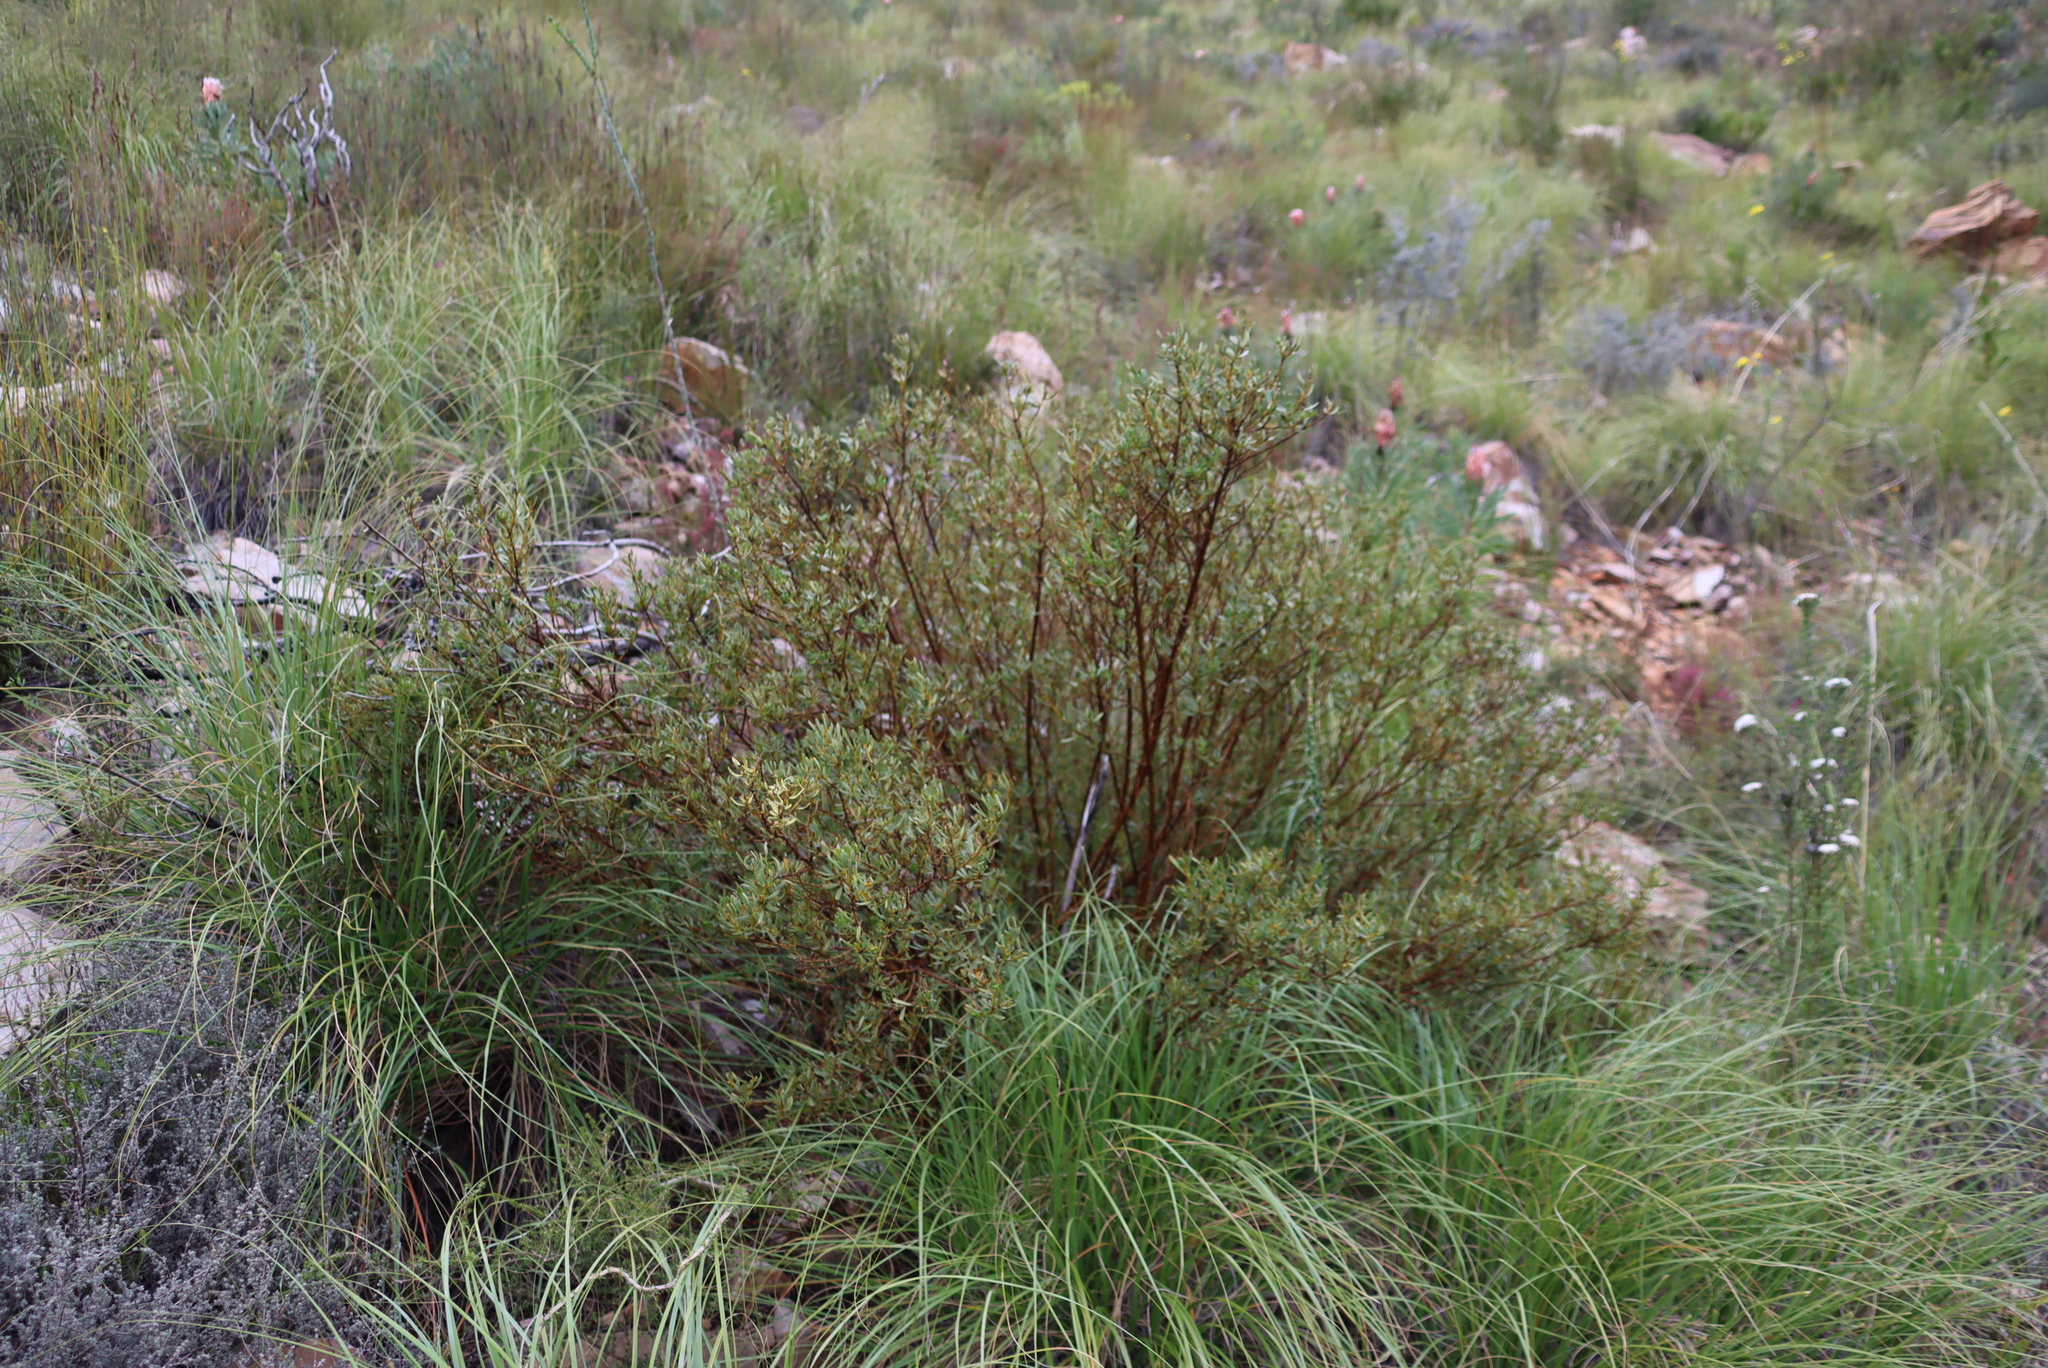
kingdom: Plantae
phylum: Tracheophyta
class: Magnoliopsida
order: Fabales
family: Fabaceae
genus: Cyclopia
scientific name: Cyclopia intermedia
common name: Mountain tea
